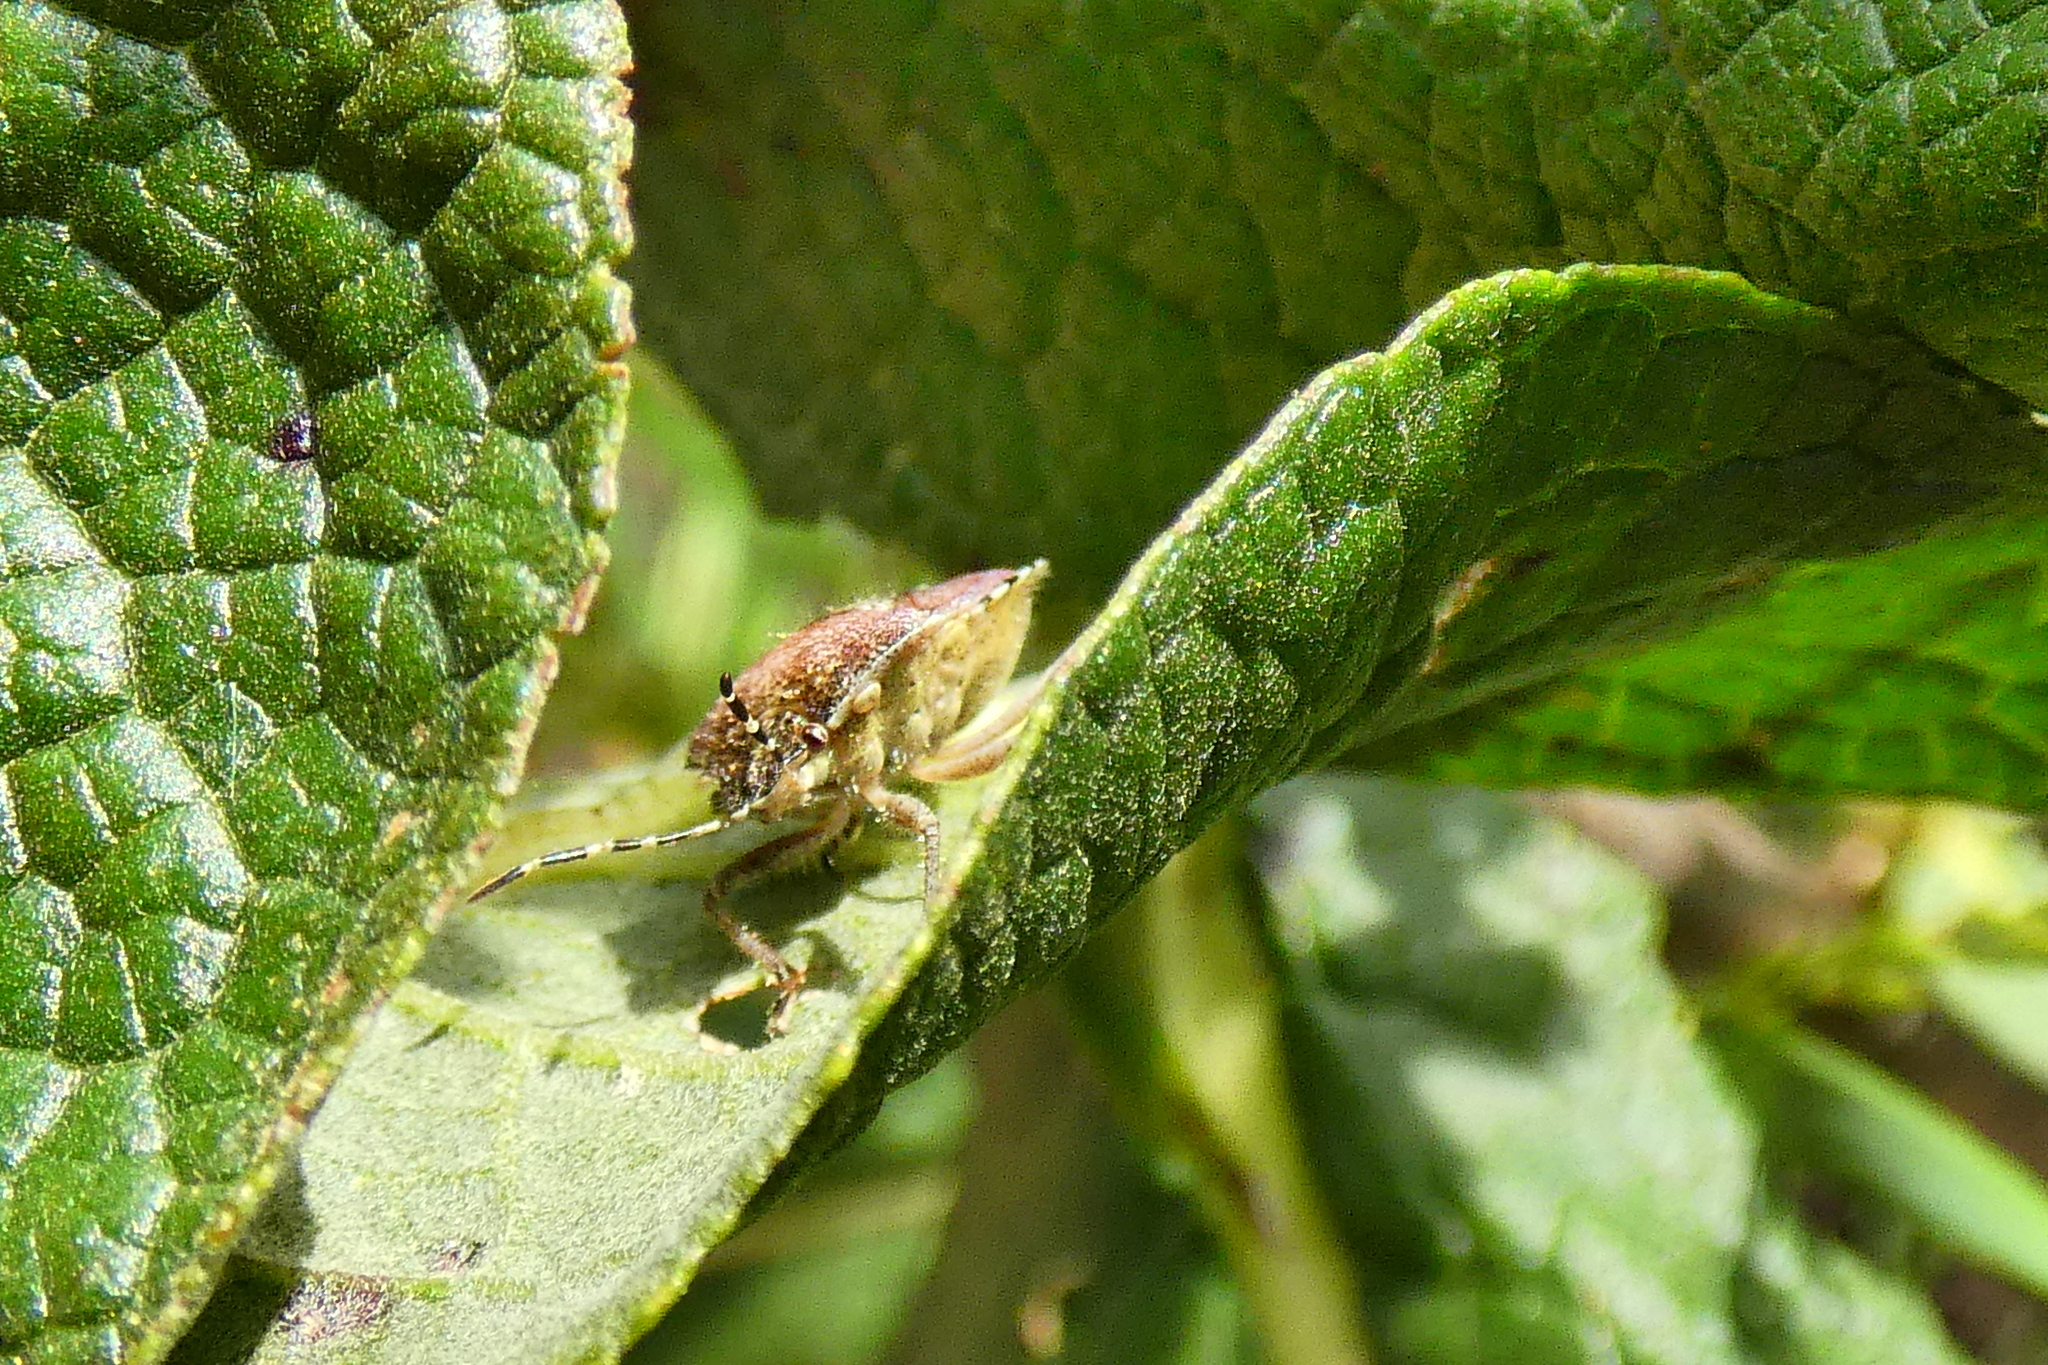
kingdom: Animalia
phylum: Arthropoda
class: Insecta
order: Hemiptera
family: Pentatomidae
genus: Dolycoris
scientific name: Dolycoris baccarum
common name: Sloe bug
